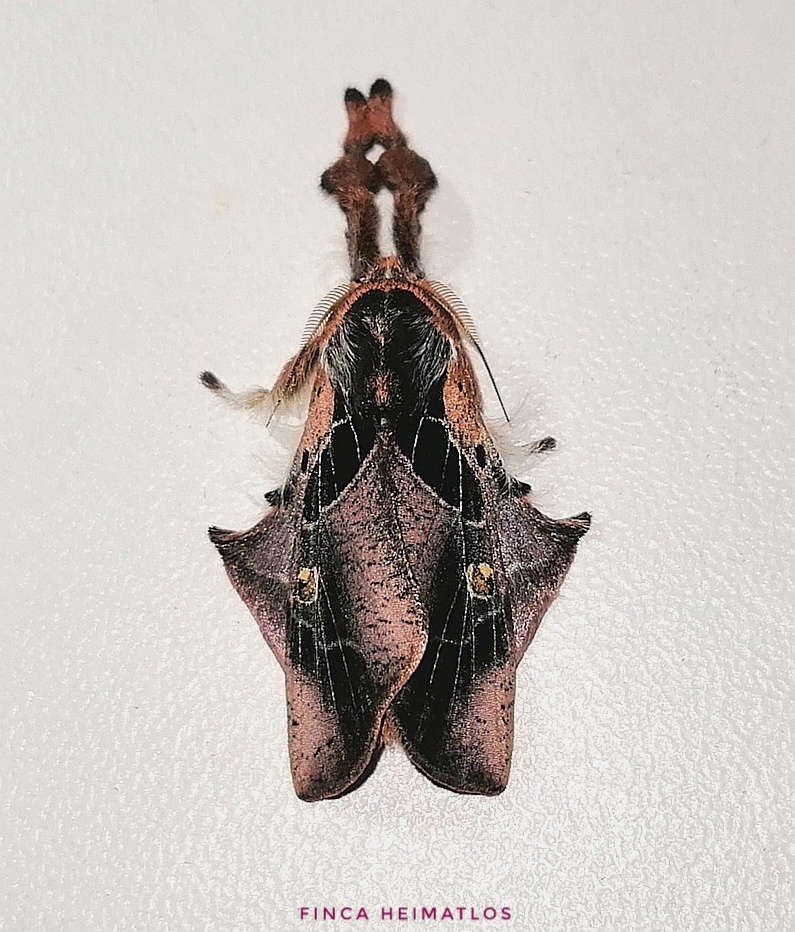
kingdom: Animalia
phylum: Arthropoda
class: Insecta
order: Lepidoptera
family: Erebidae
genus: Desmoloma
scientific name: Desmoloma signata
